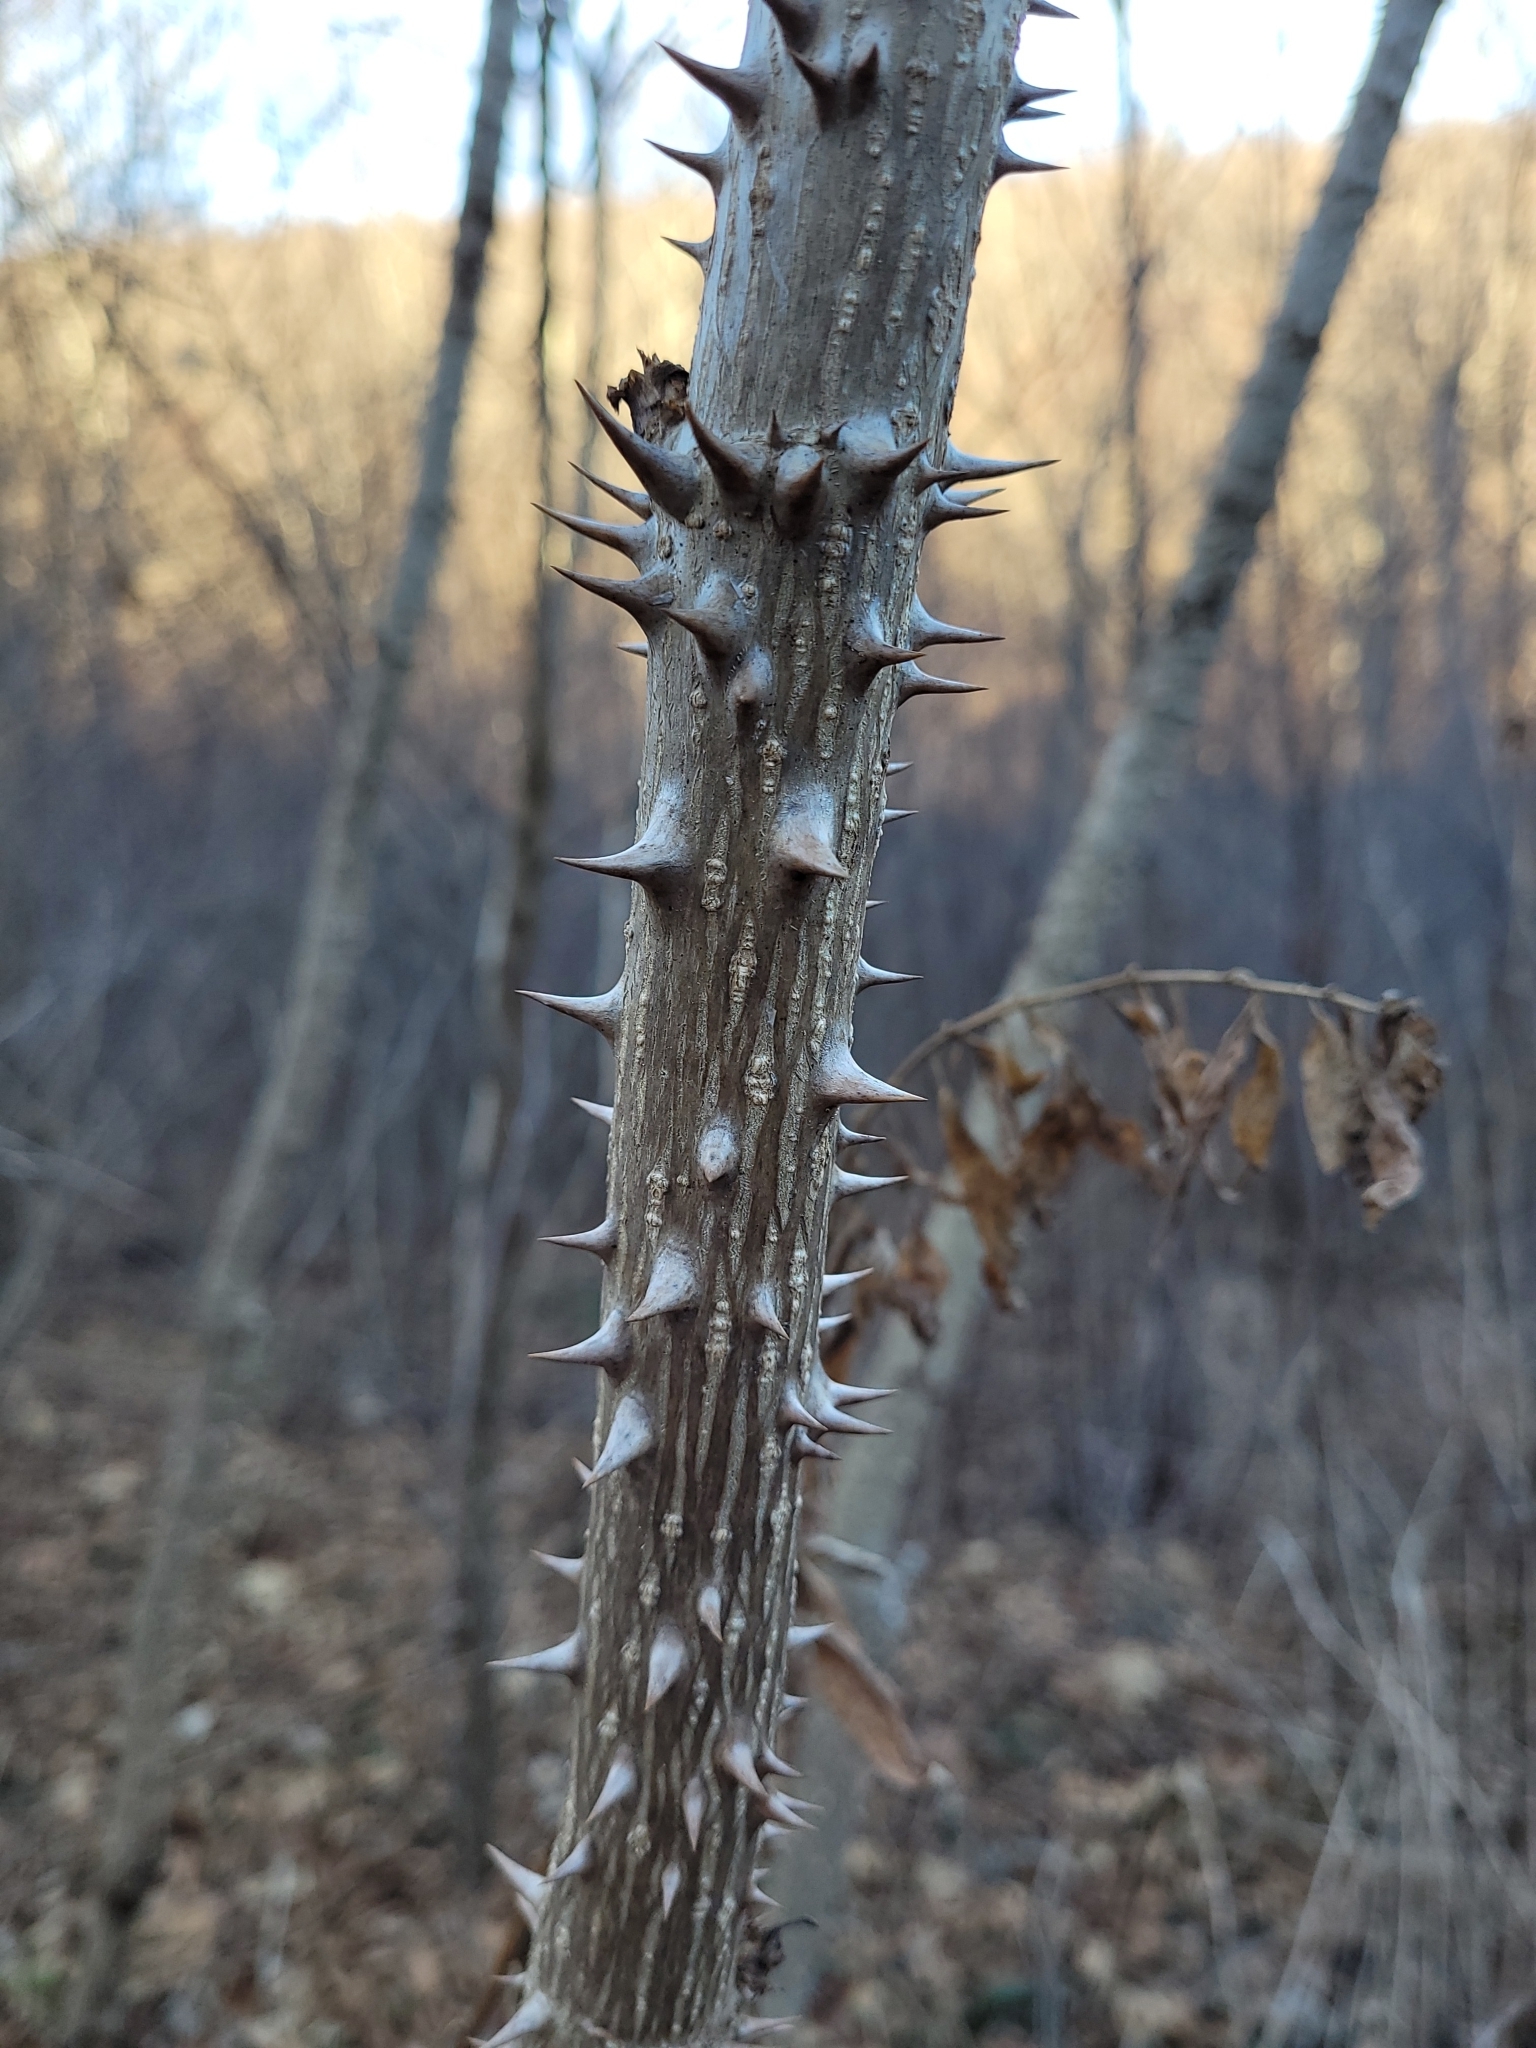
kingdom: Plantae
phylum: Tracheophyta
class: Magnoliopsida
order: Apiales
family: Araliaceae
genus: Aralia
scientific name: Aralia spinosa
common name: Hercules'-club
